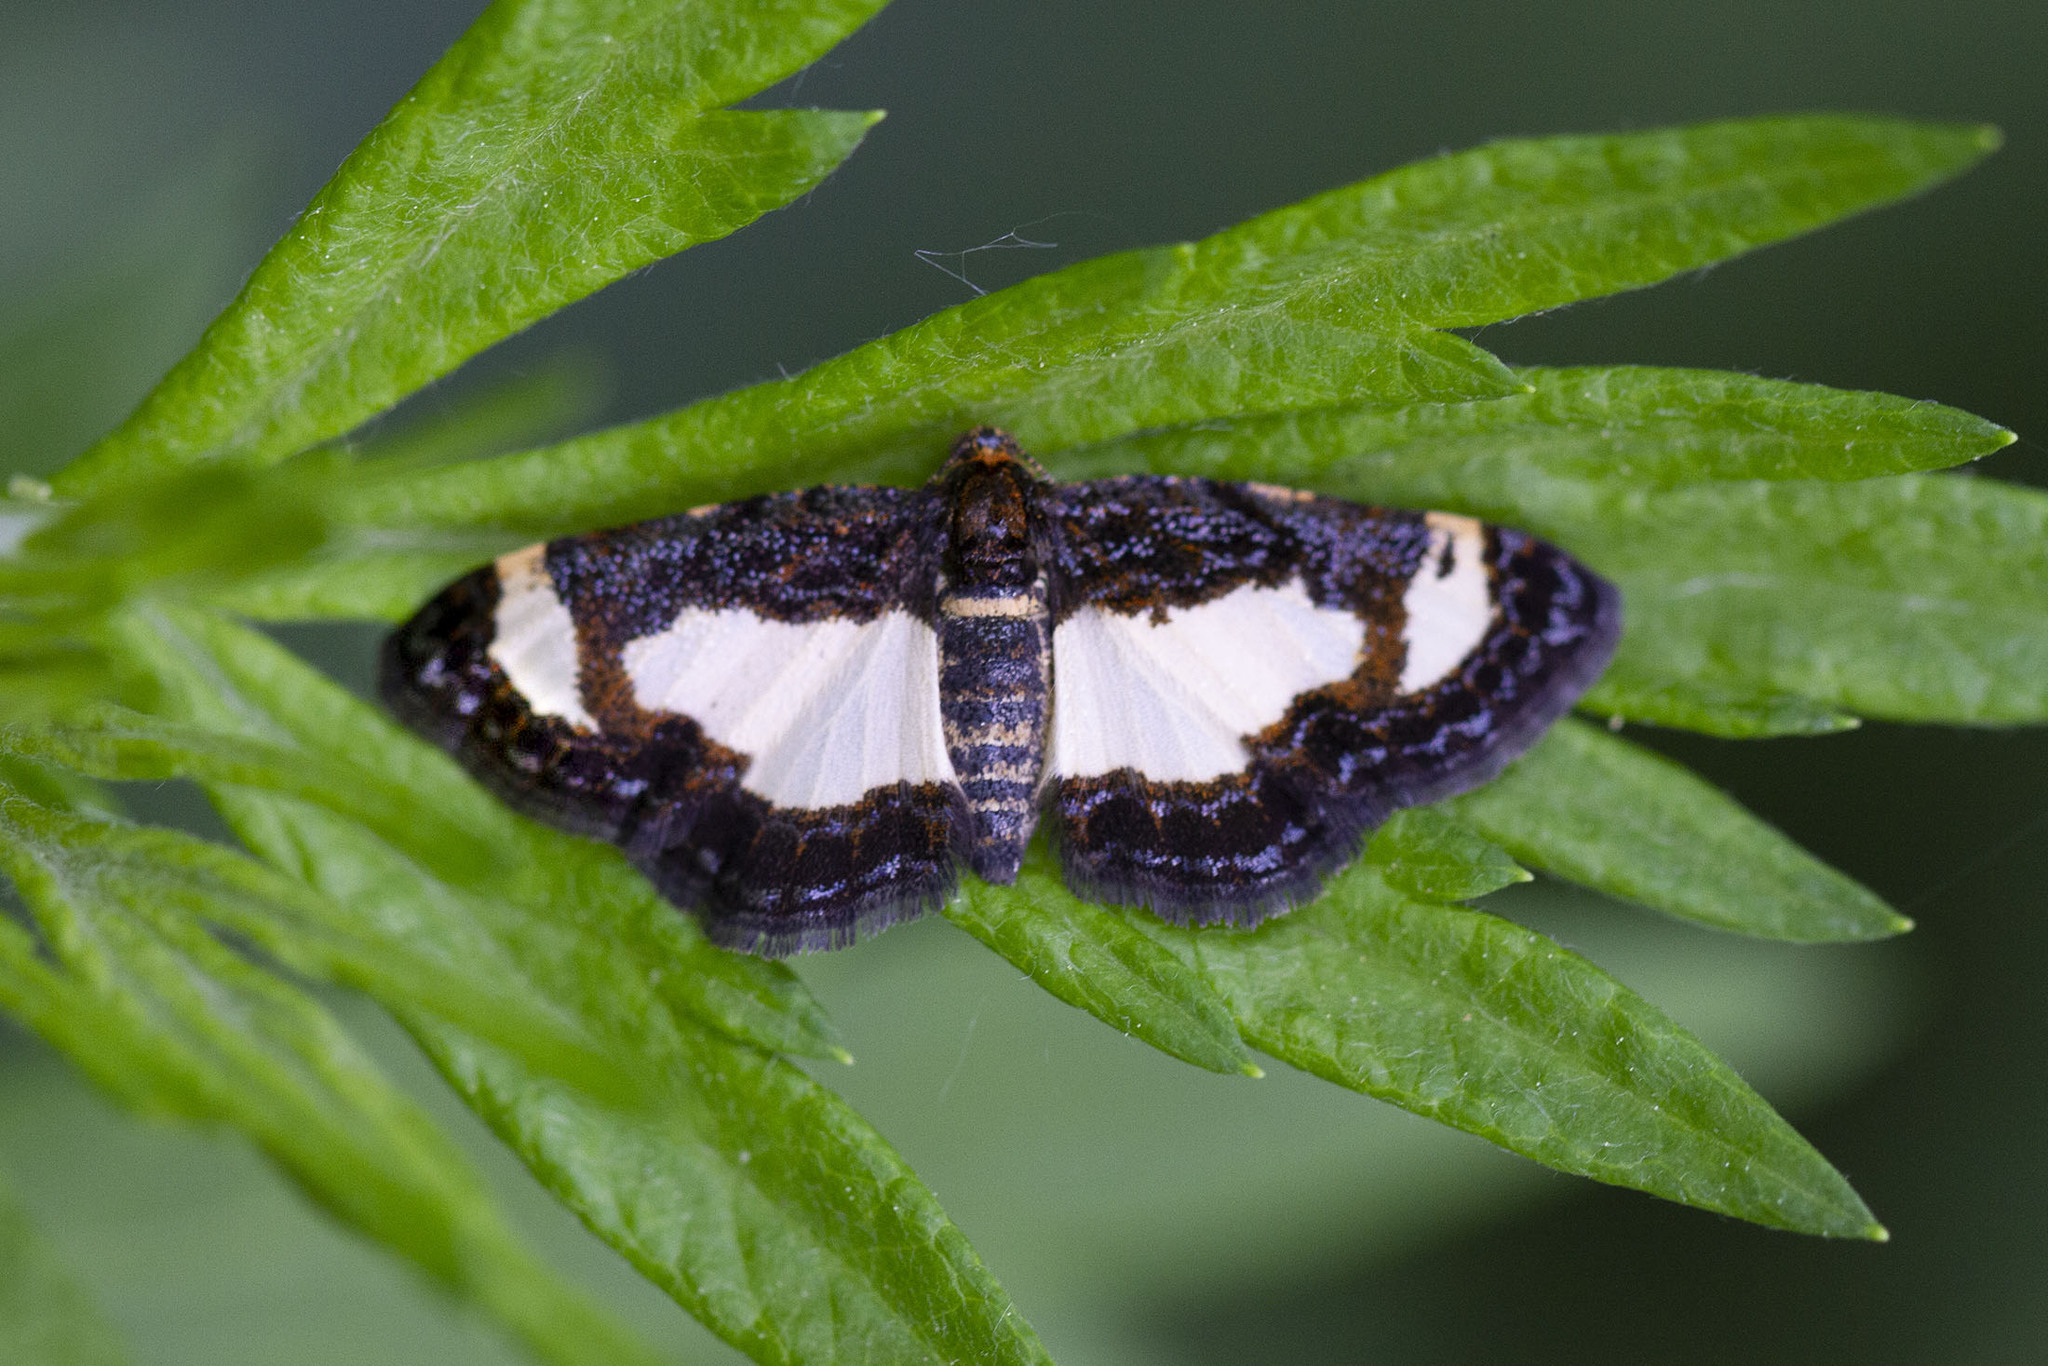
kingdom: Animalia
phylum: Arthropoda
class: Insecta
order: Lepidoptera
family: Geometridae
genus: Heliomata
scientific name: Heliomata cycladata
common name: Common spring moth
